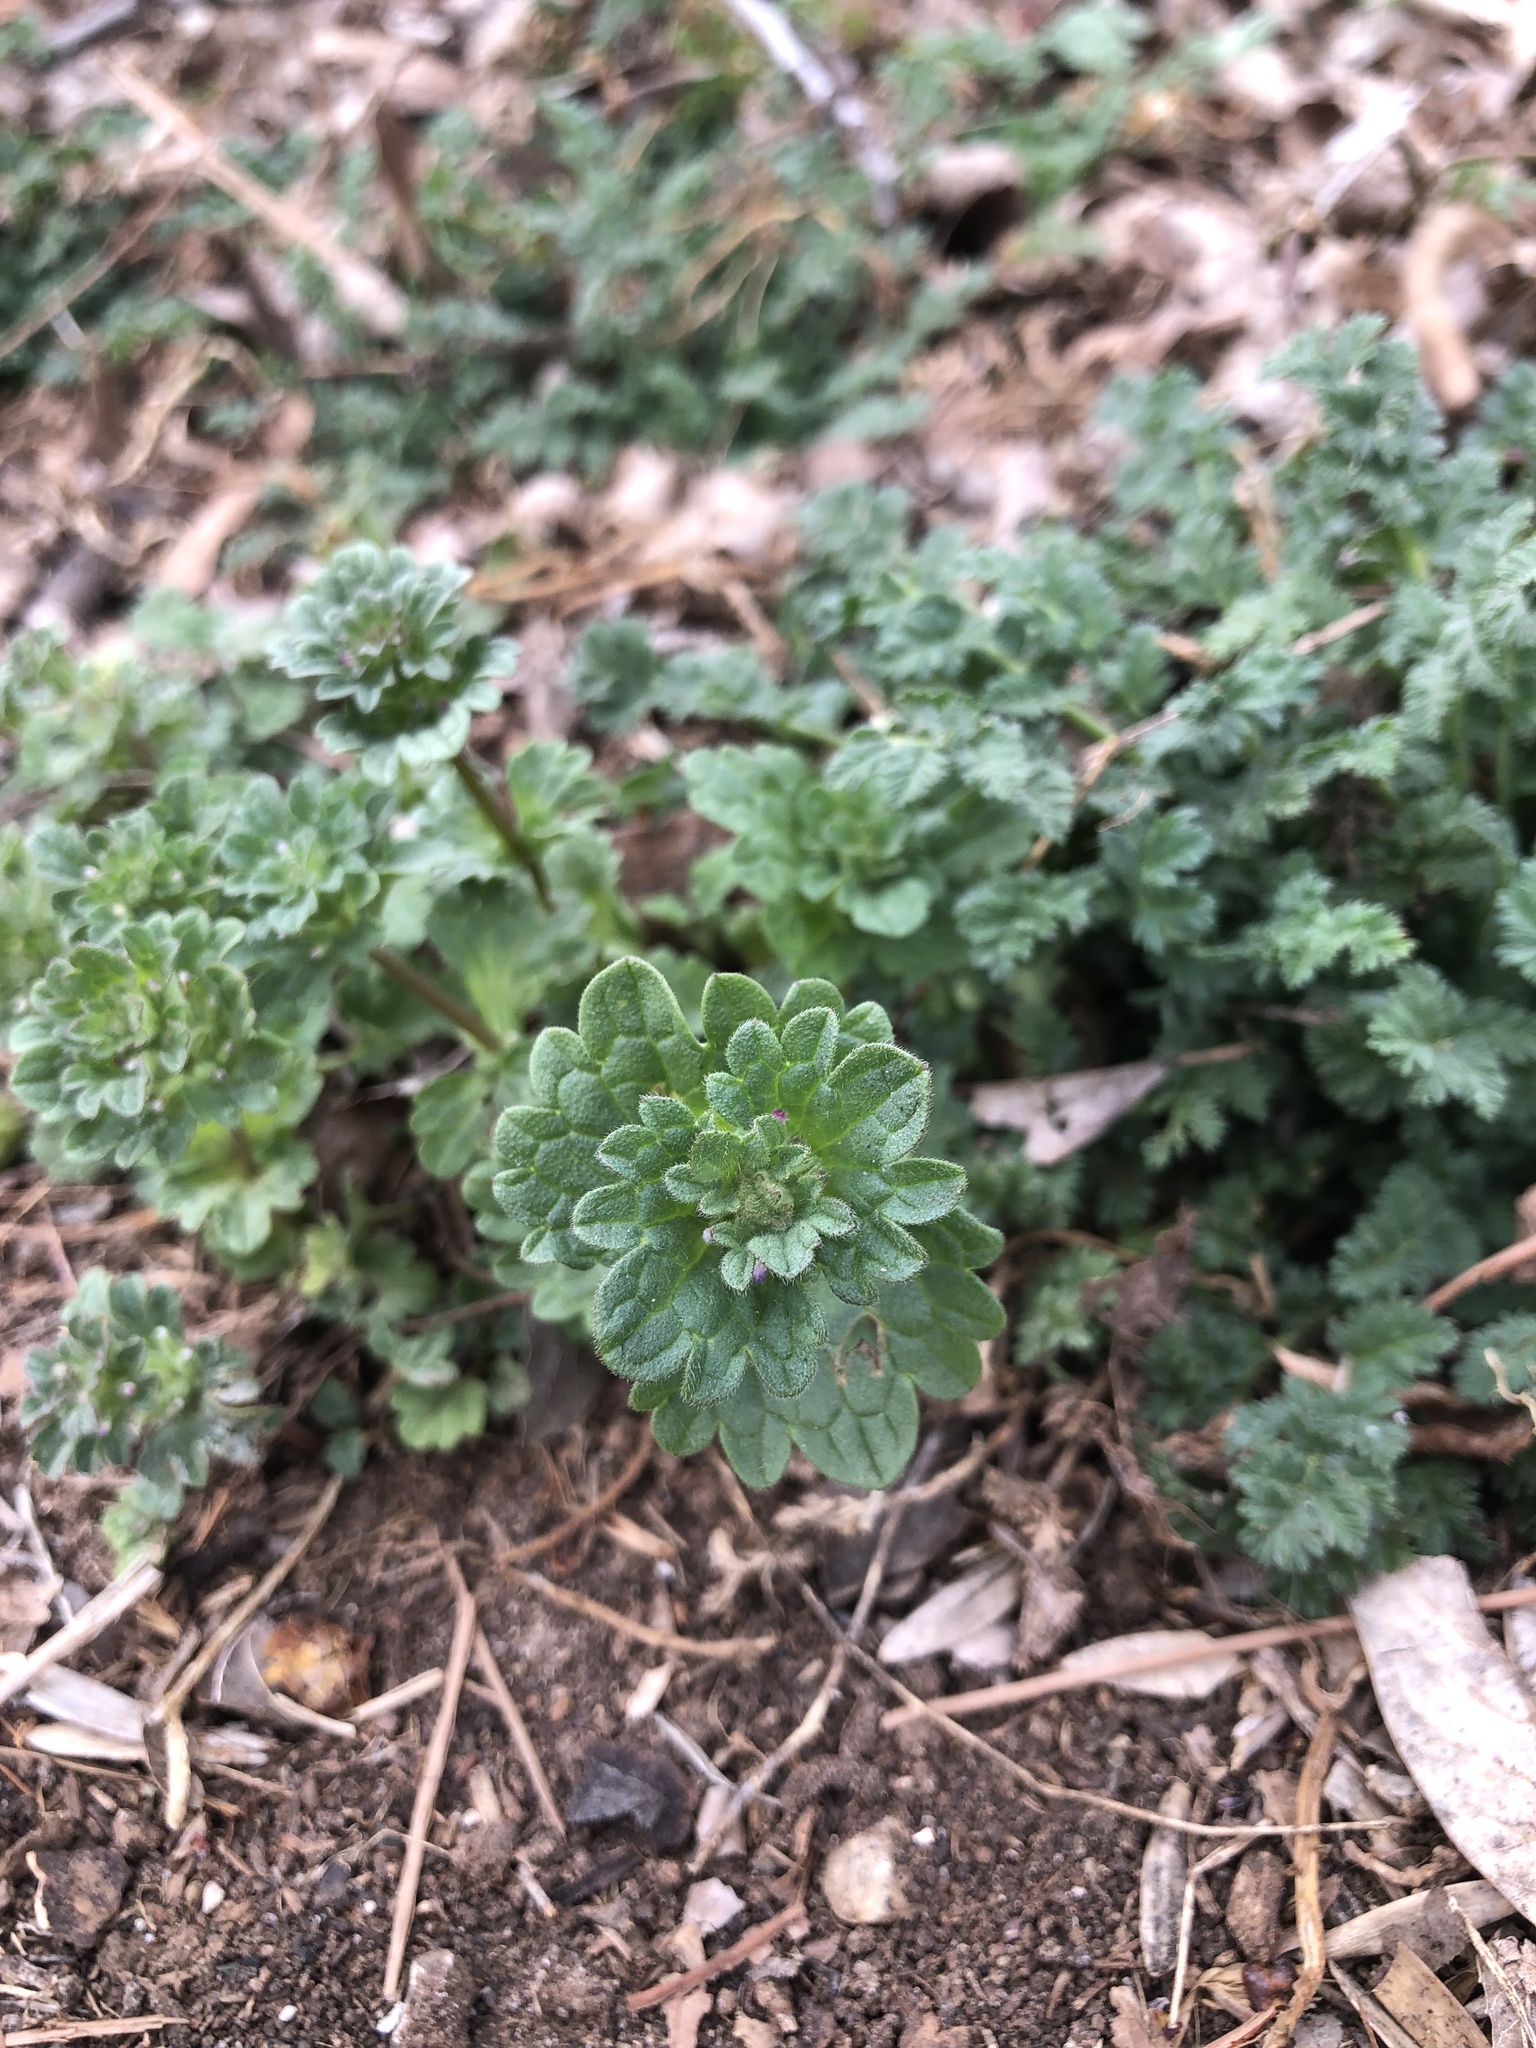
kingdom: Plantae
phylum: Tracheophyta
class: Magnoliopsida
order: Lamiales
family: Lamiaceae
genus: Lamium
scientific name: Lamium amplexicaule
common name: Henbit dead-nettle
